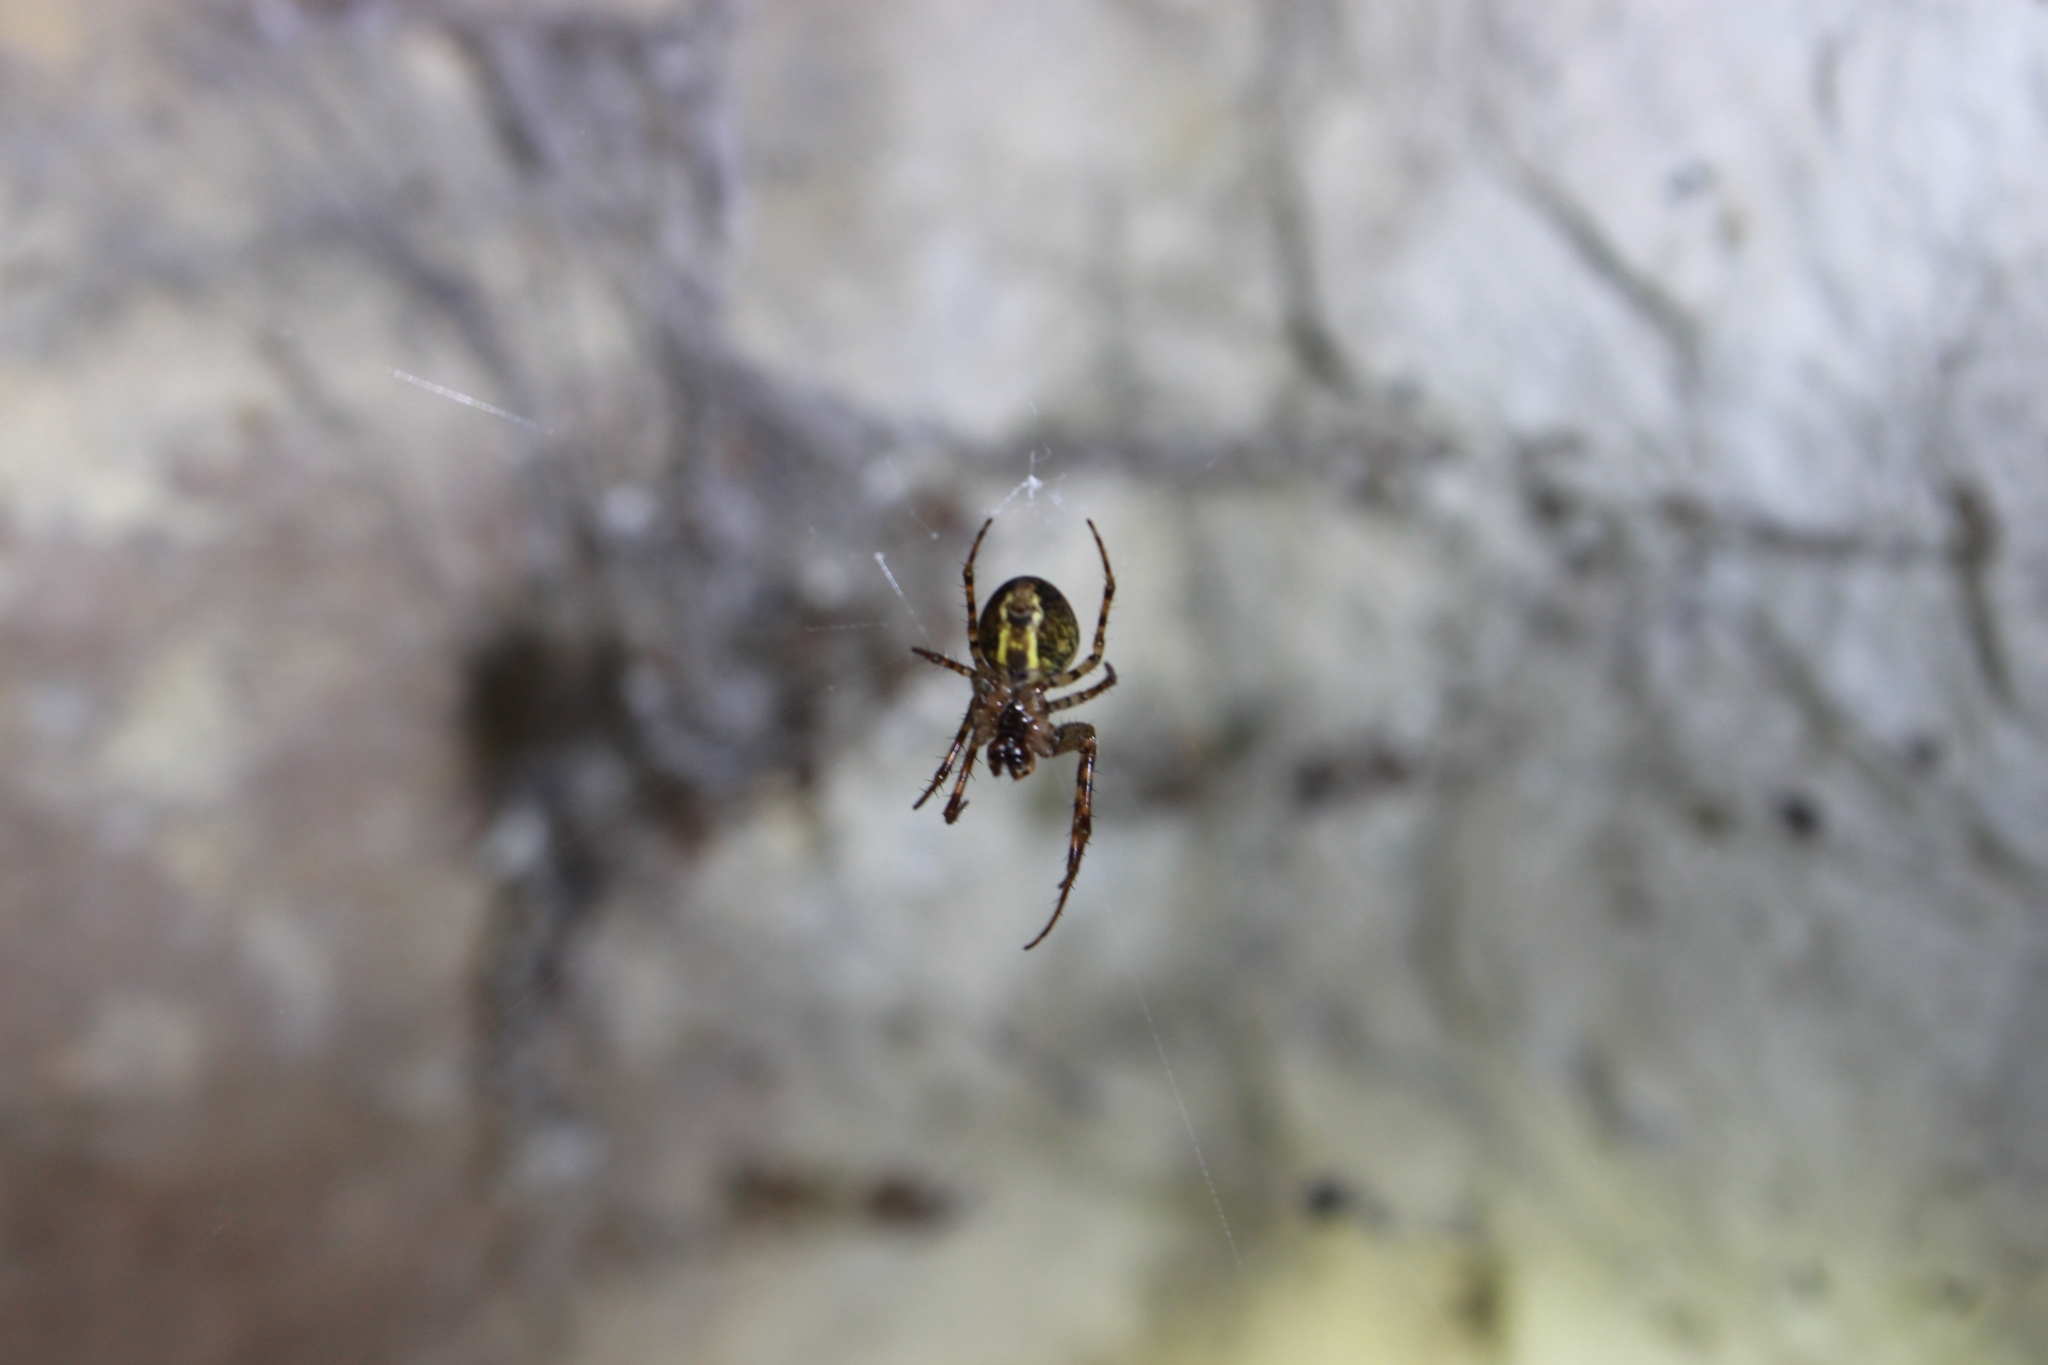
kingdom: Animalia
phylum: Arthropoda
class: Arachnida
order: Araneae
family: Tetragnathidae
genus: Metellina
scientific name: Metellina merianae
